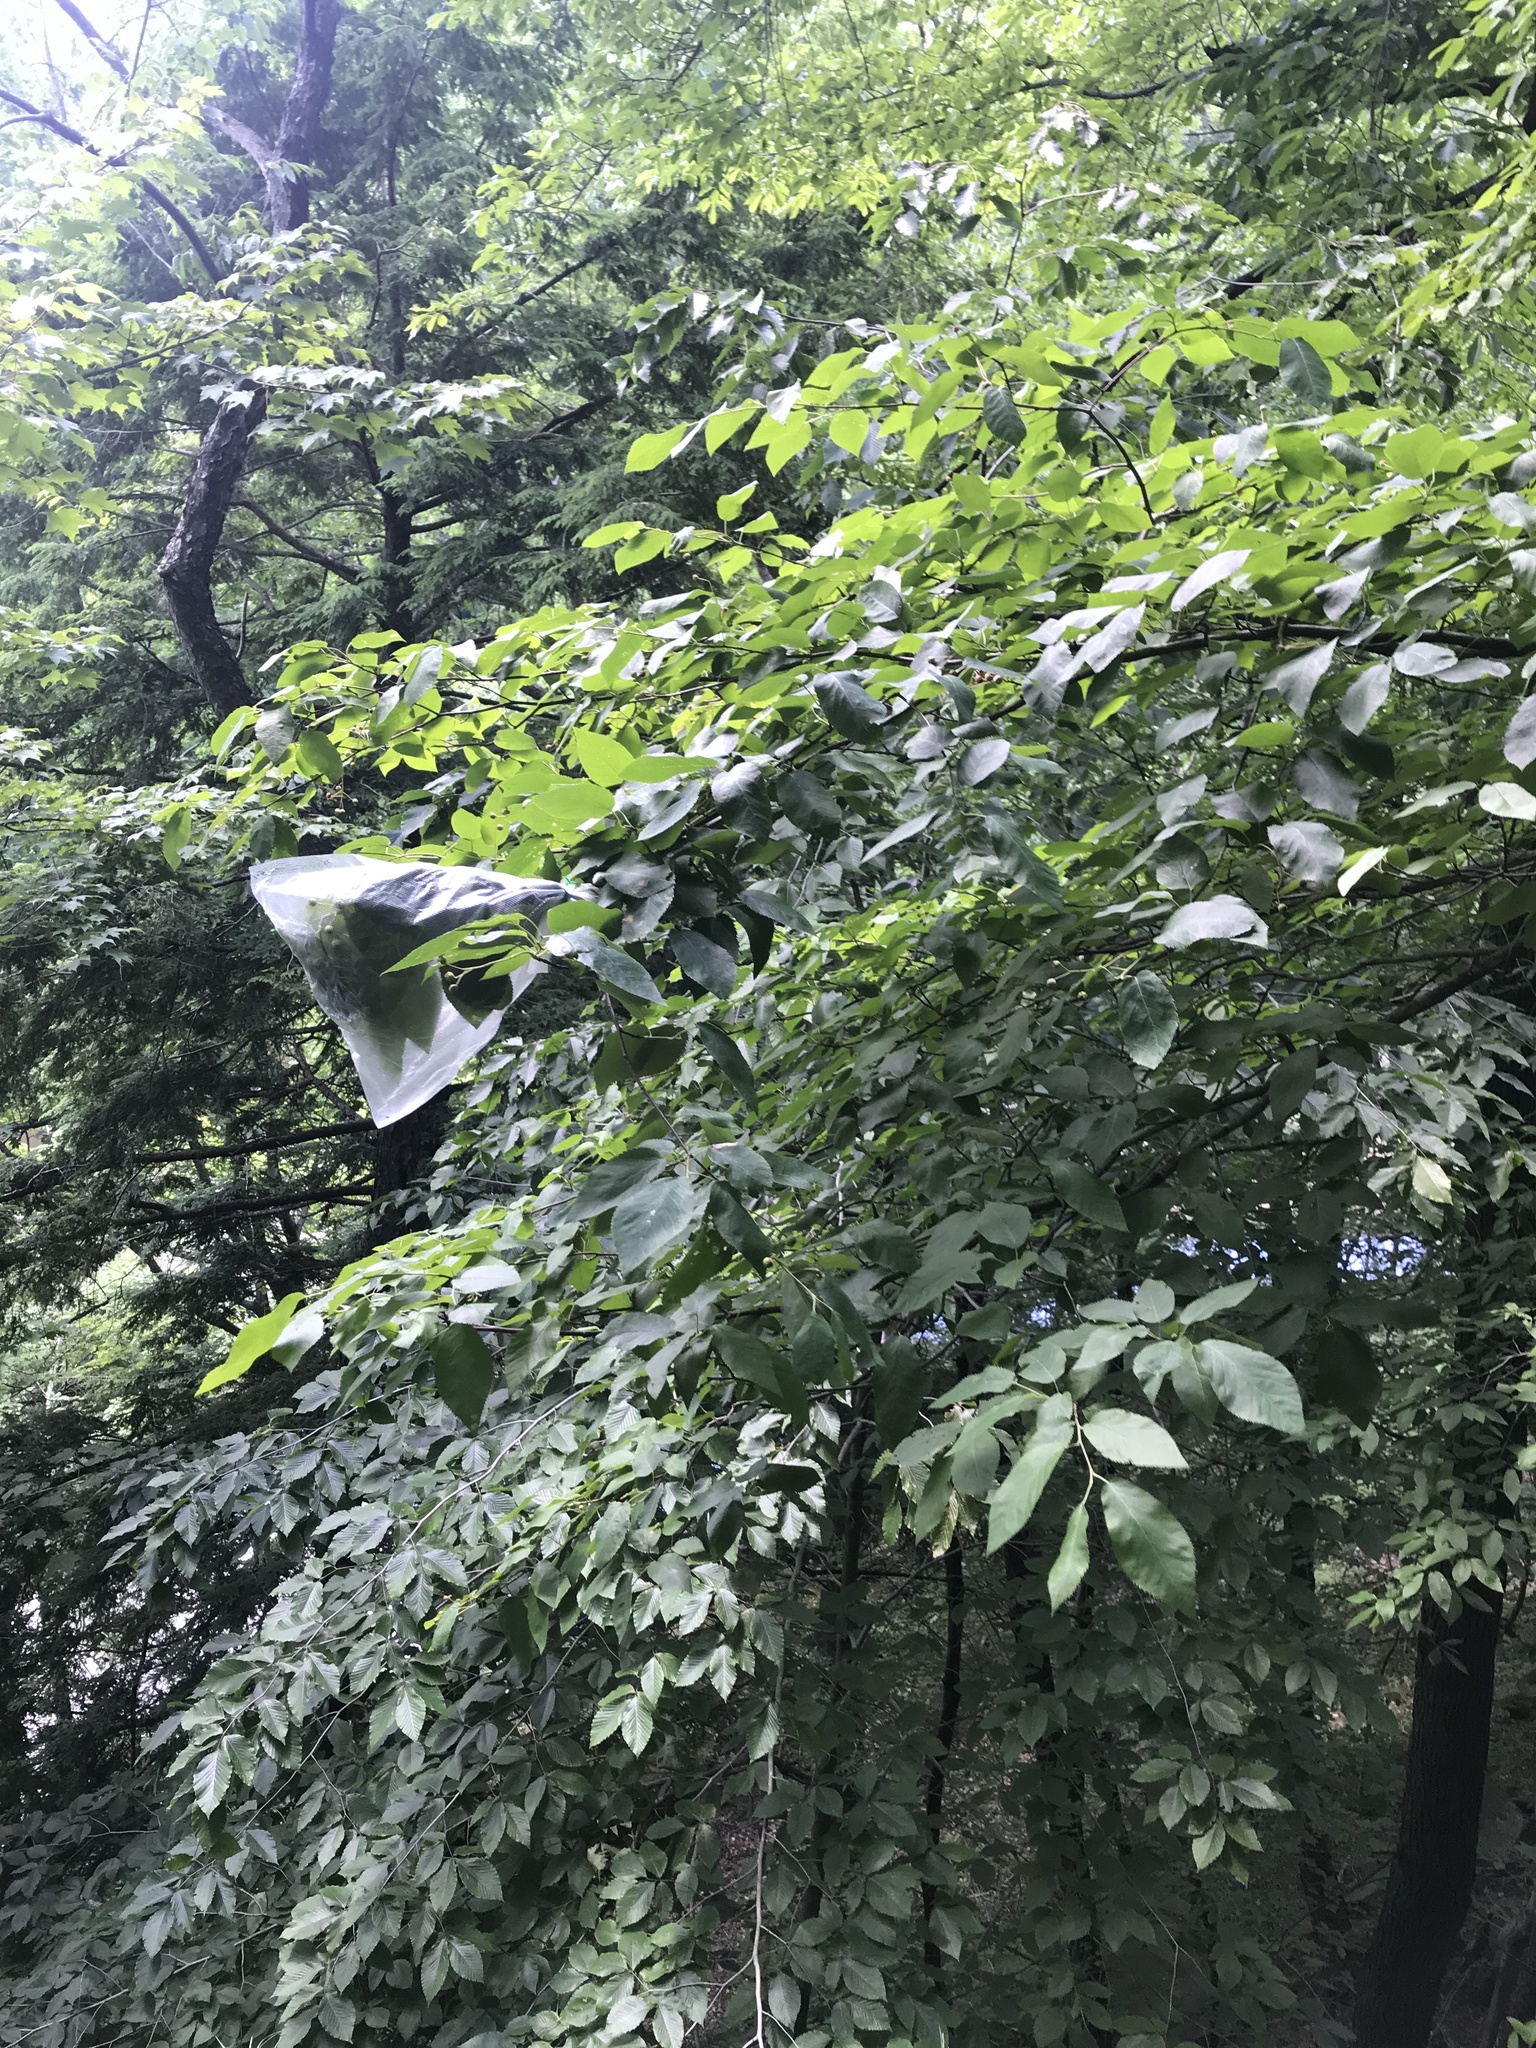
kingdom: Plantae
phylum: Tracheophyta
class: Magnoliopsida
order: Rosales
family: Rosaceae
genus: Amelanchier
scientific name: Amelanchier arborea
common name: Downy serviceberry
